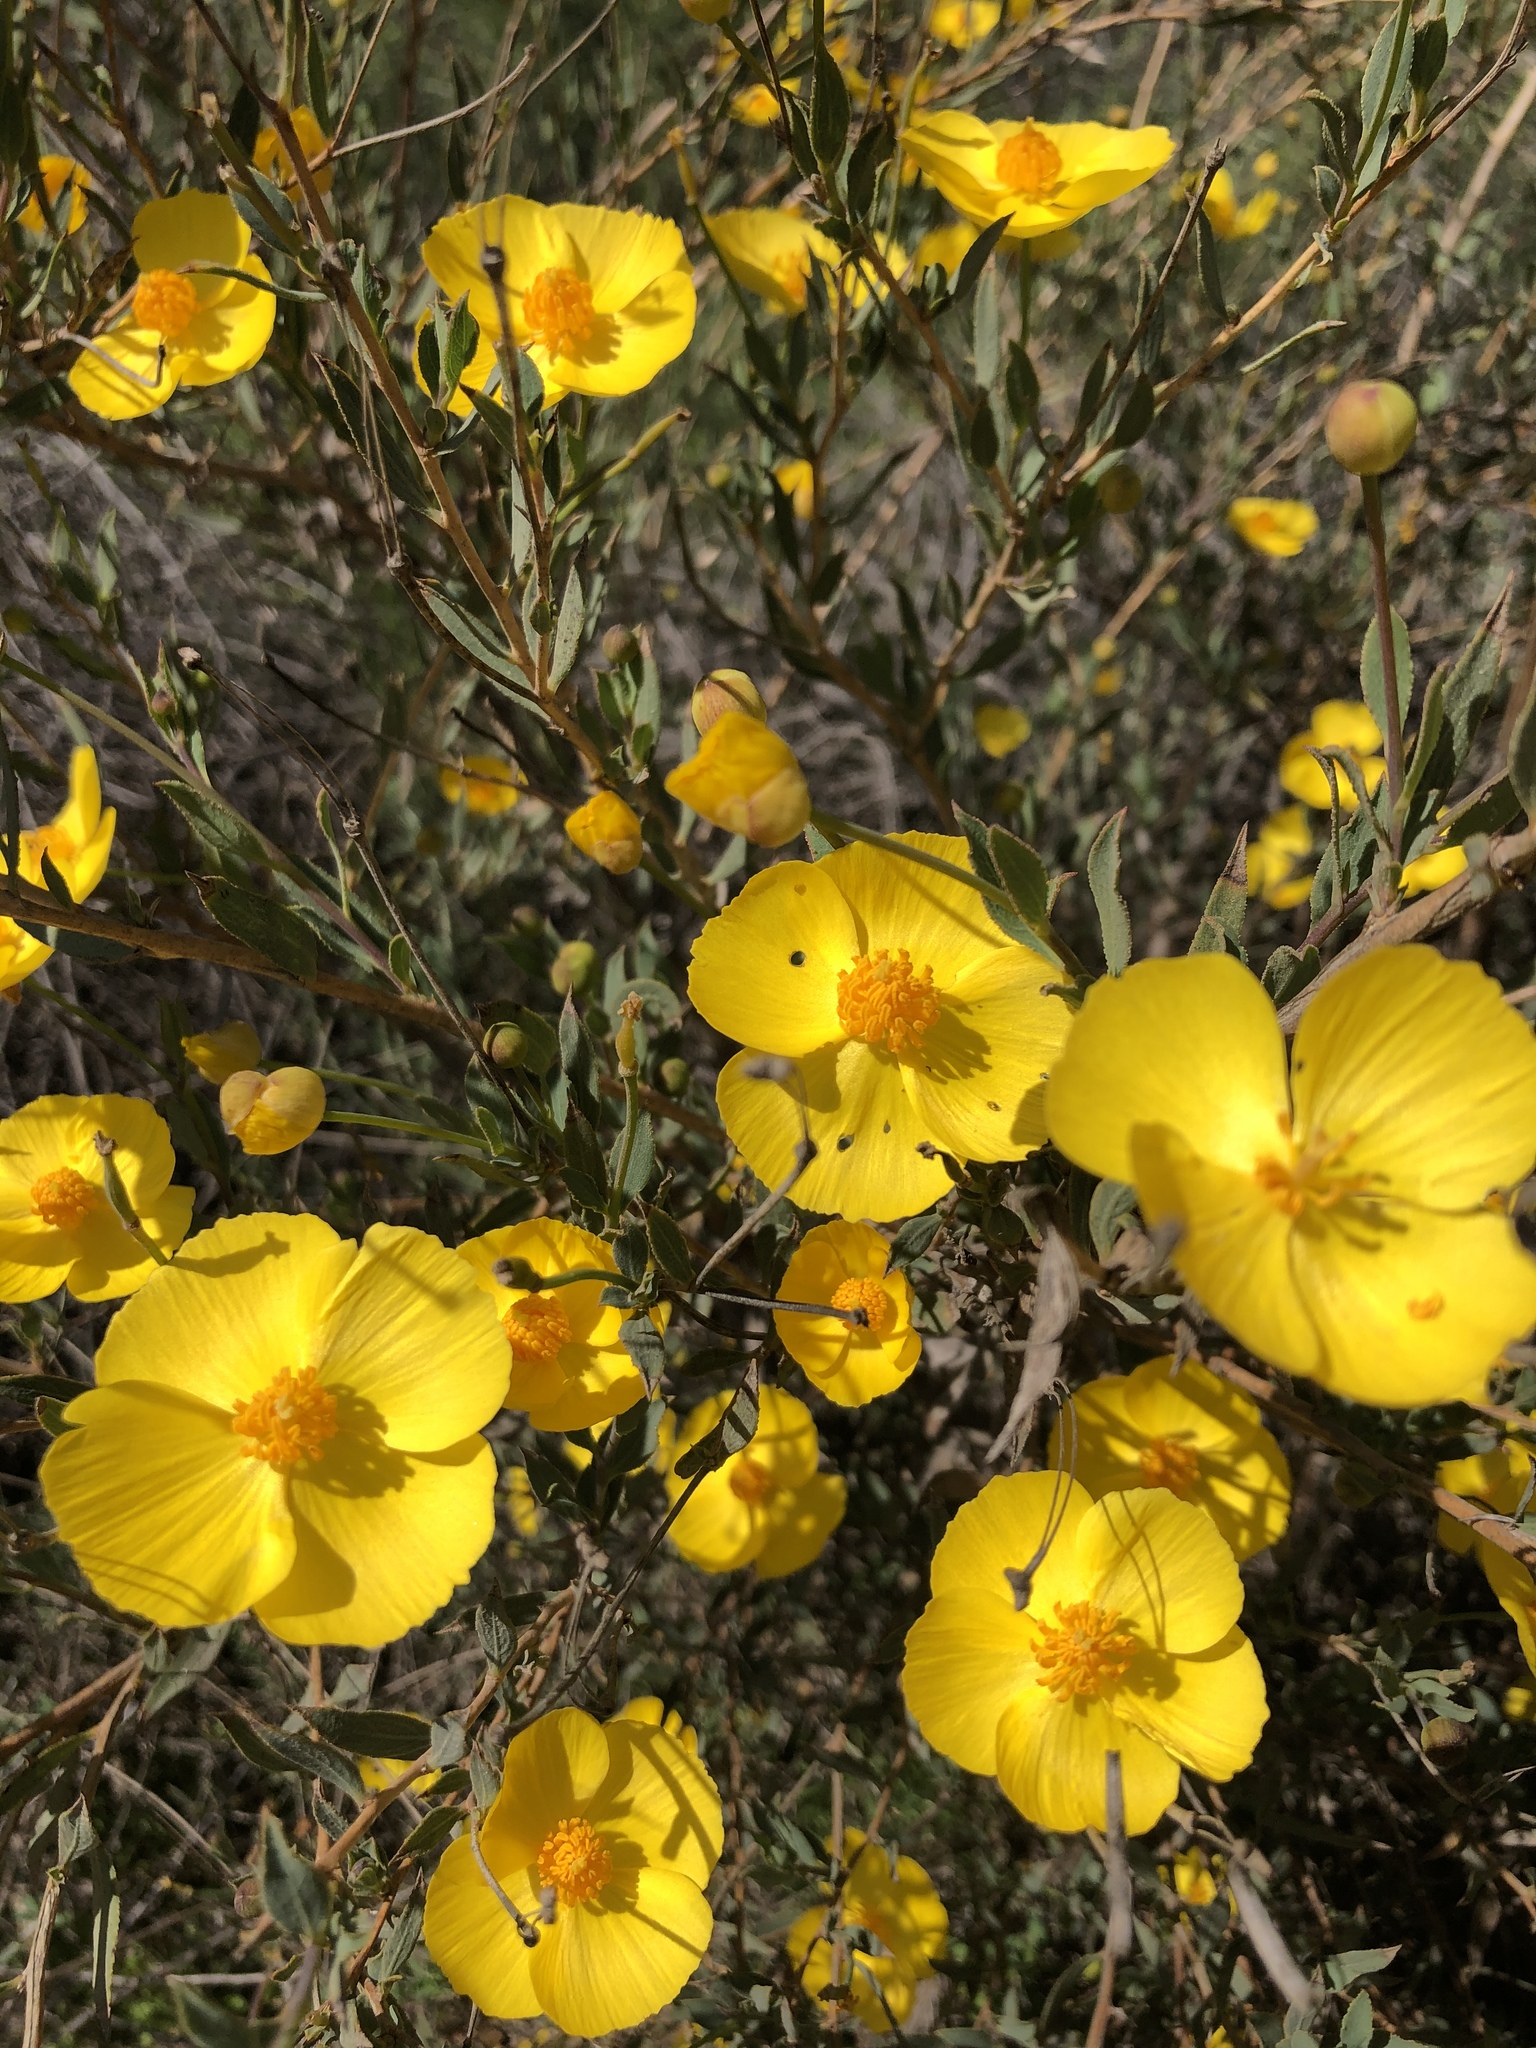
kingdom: Plantae
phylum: Tracheophyta
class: Magnoliopsida
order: Ranunculales
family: Papaveraceae
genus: Dendromecon
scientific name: Dendromecon rigida
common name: Tree poppy
